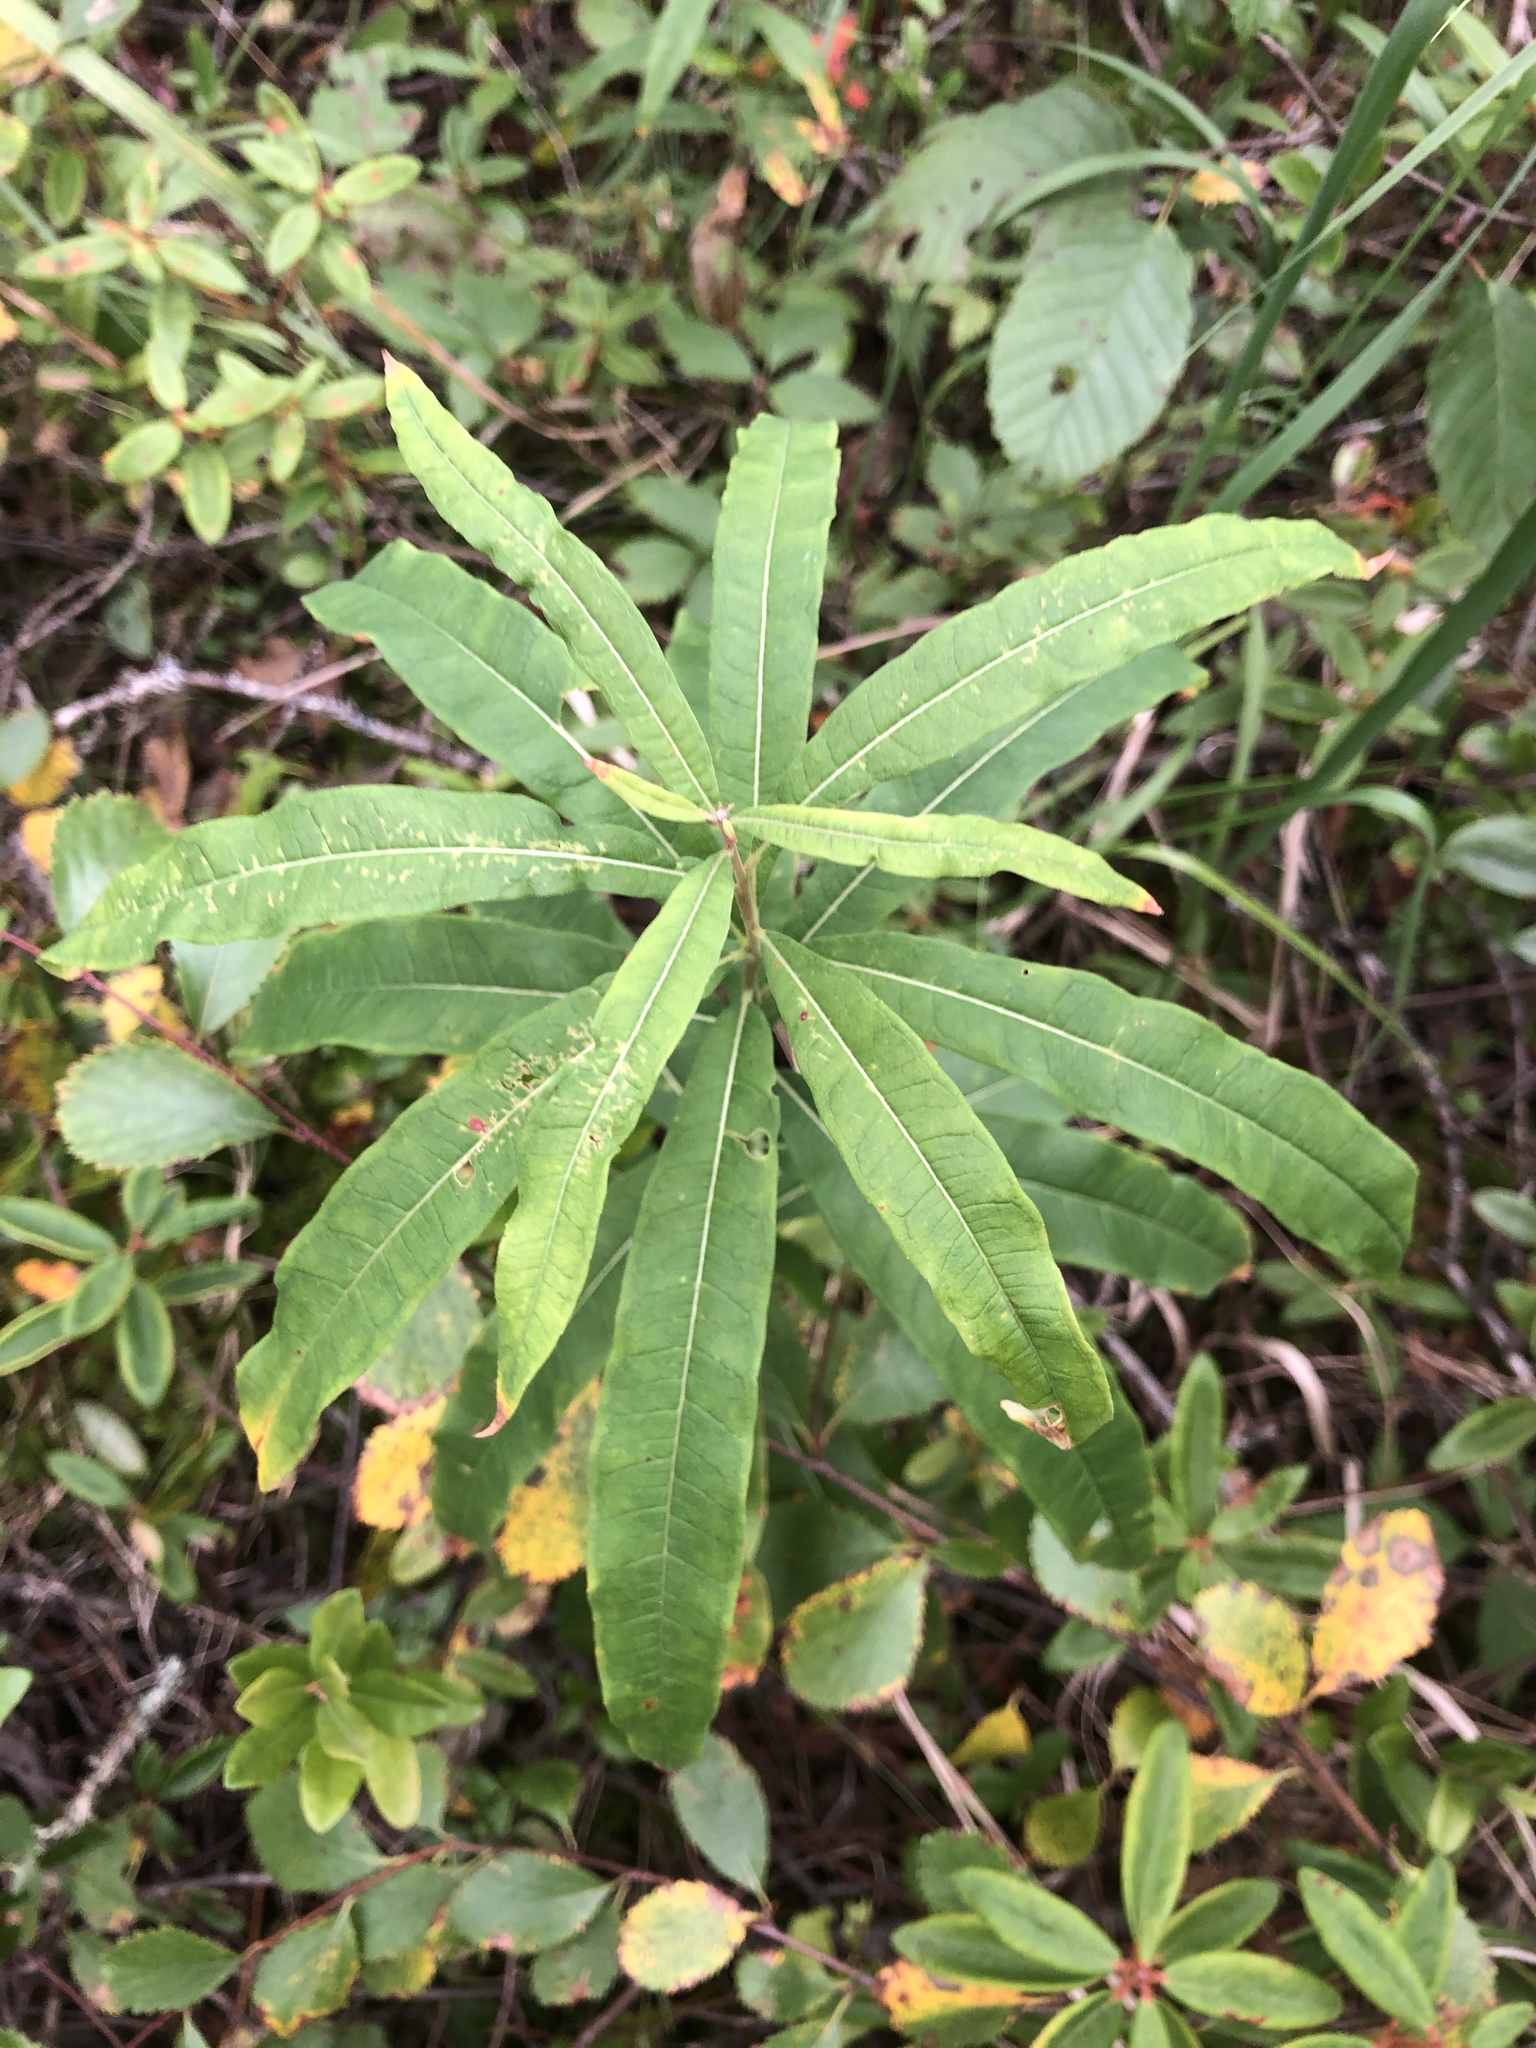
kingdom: Plantae
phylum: Tracheophyta
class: Magnoliopsida
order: Myrtales
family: Onagraceae
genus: Chamaenerion
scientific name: Chamaenerion angustifolium
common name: Fireweed
